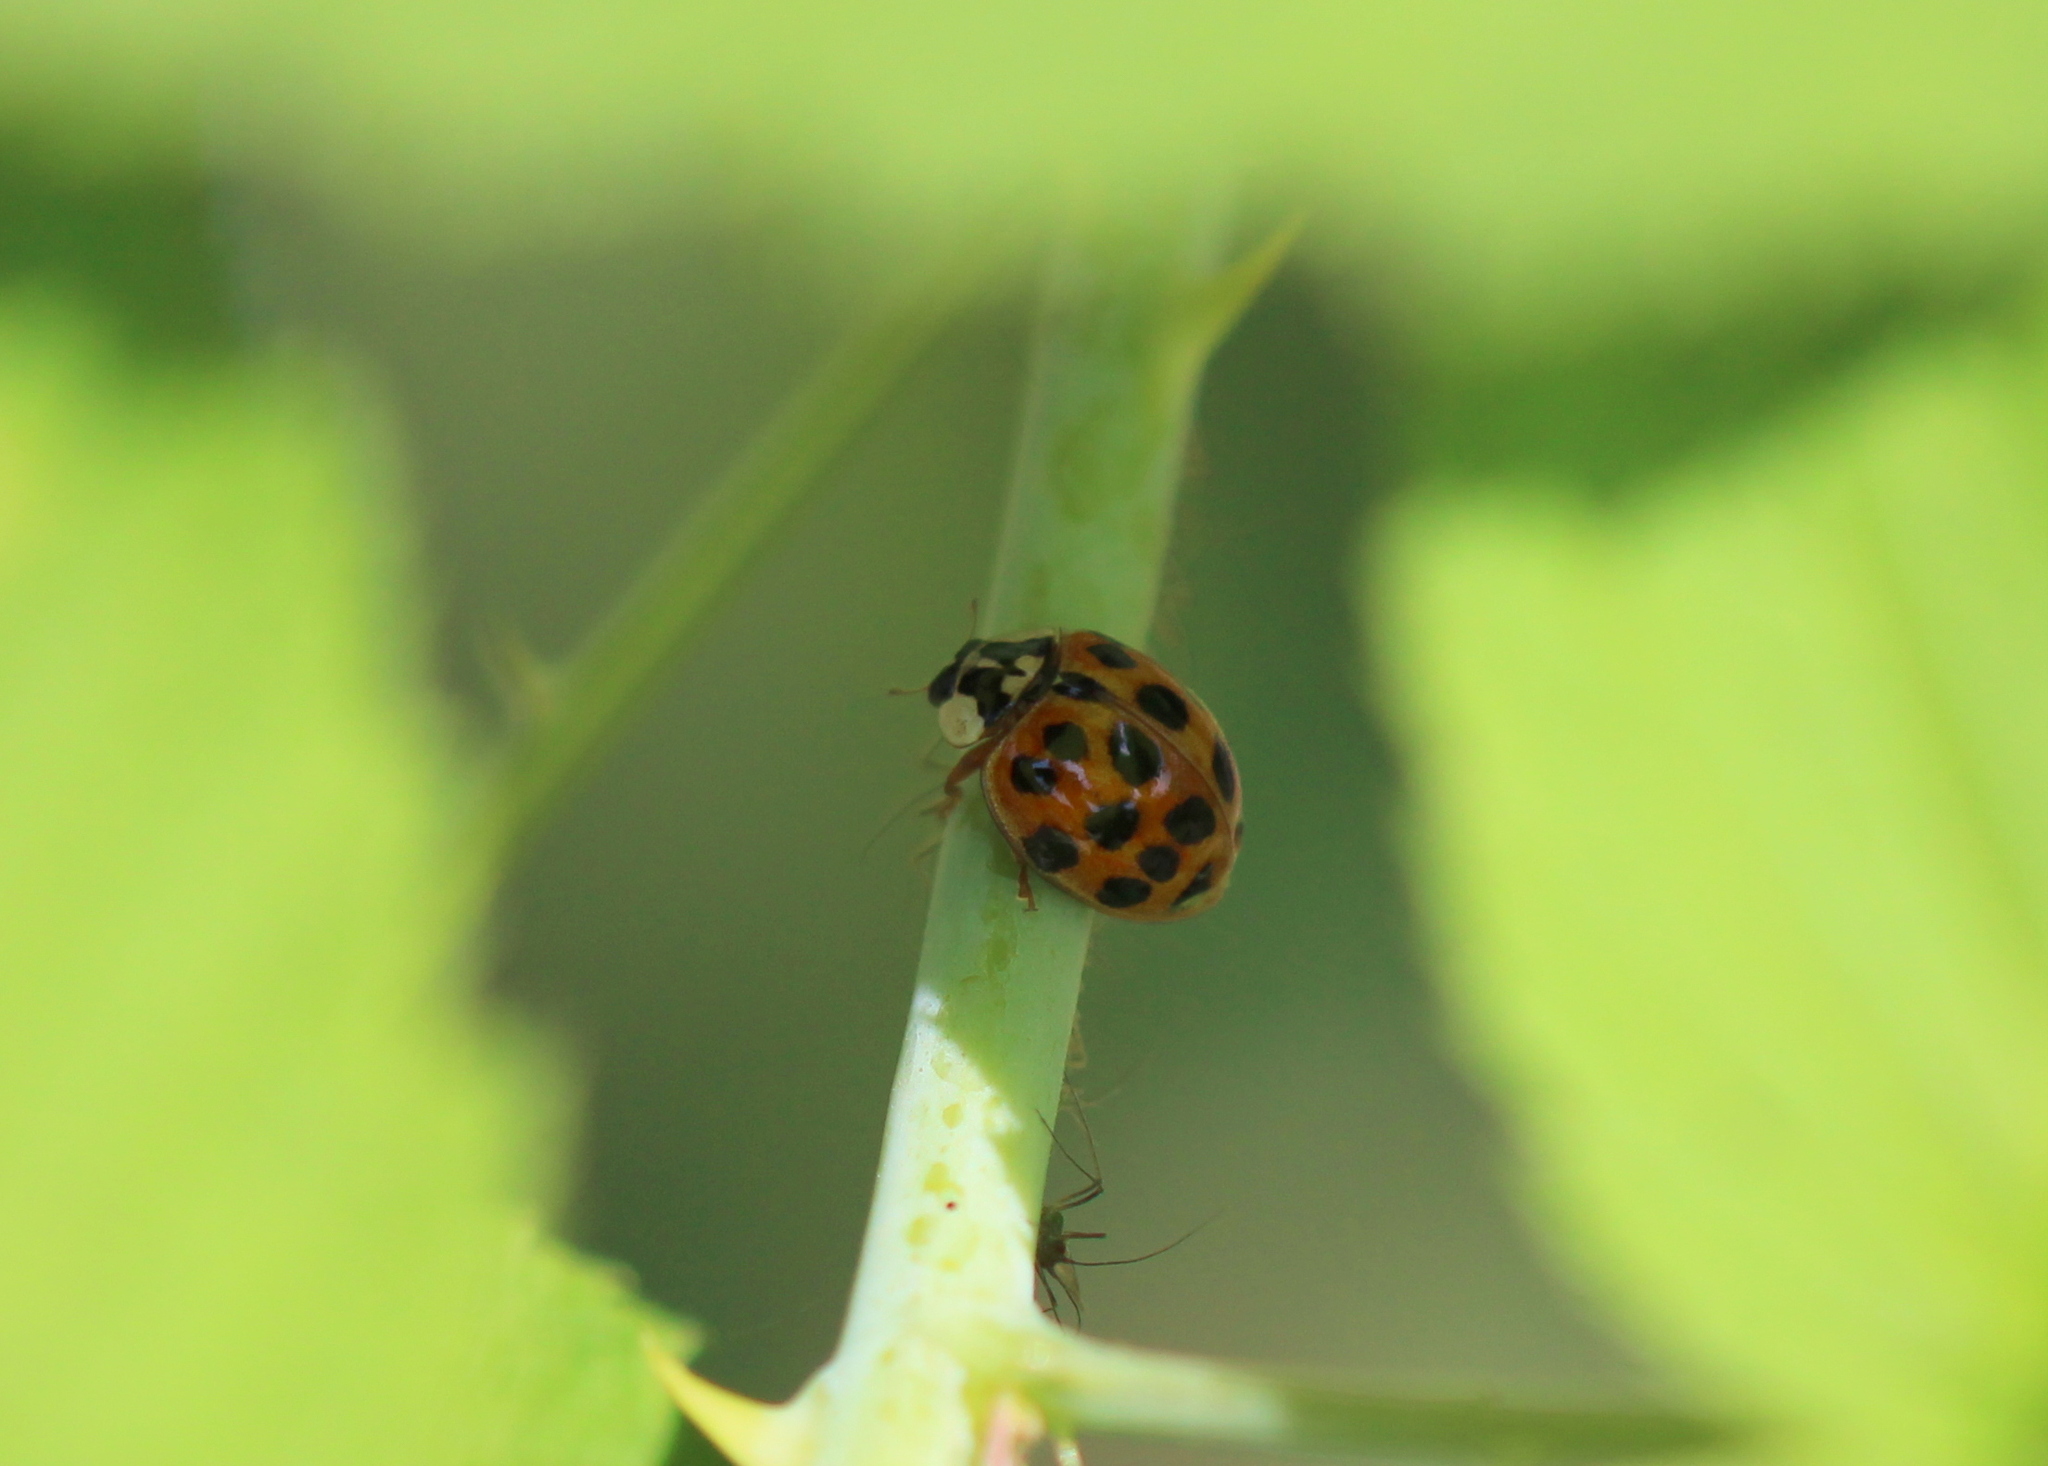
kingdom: Animalia
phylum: Arthropoda
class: Insecta
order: Coleoptera
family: Coccinellidae
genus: Harmonia
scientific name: Harmonia axyridis
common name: Harlequin ladybird
